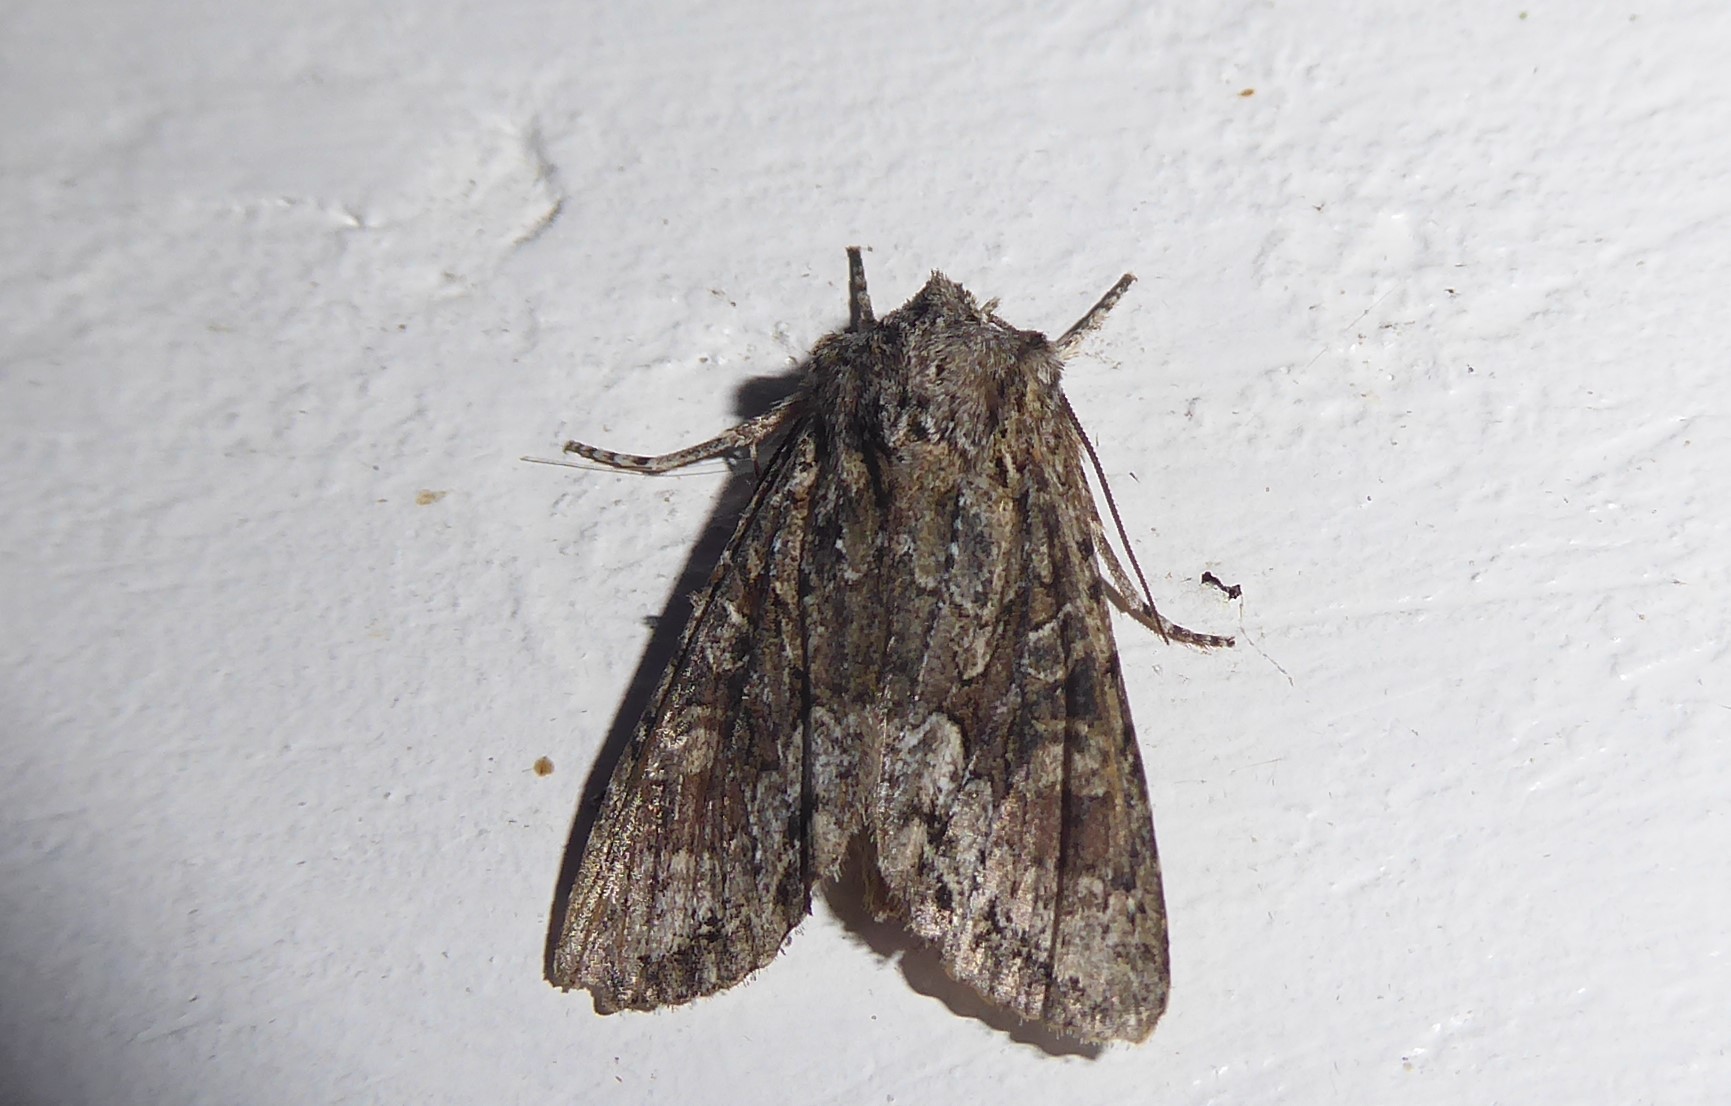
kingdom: Animalia
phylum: Arthropoda
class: Insecta
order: Lepidoptera
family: Noctuidae
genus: Ichneutica
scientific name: Ichneutica mutans
